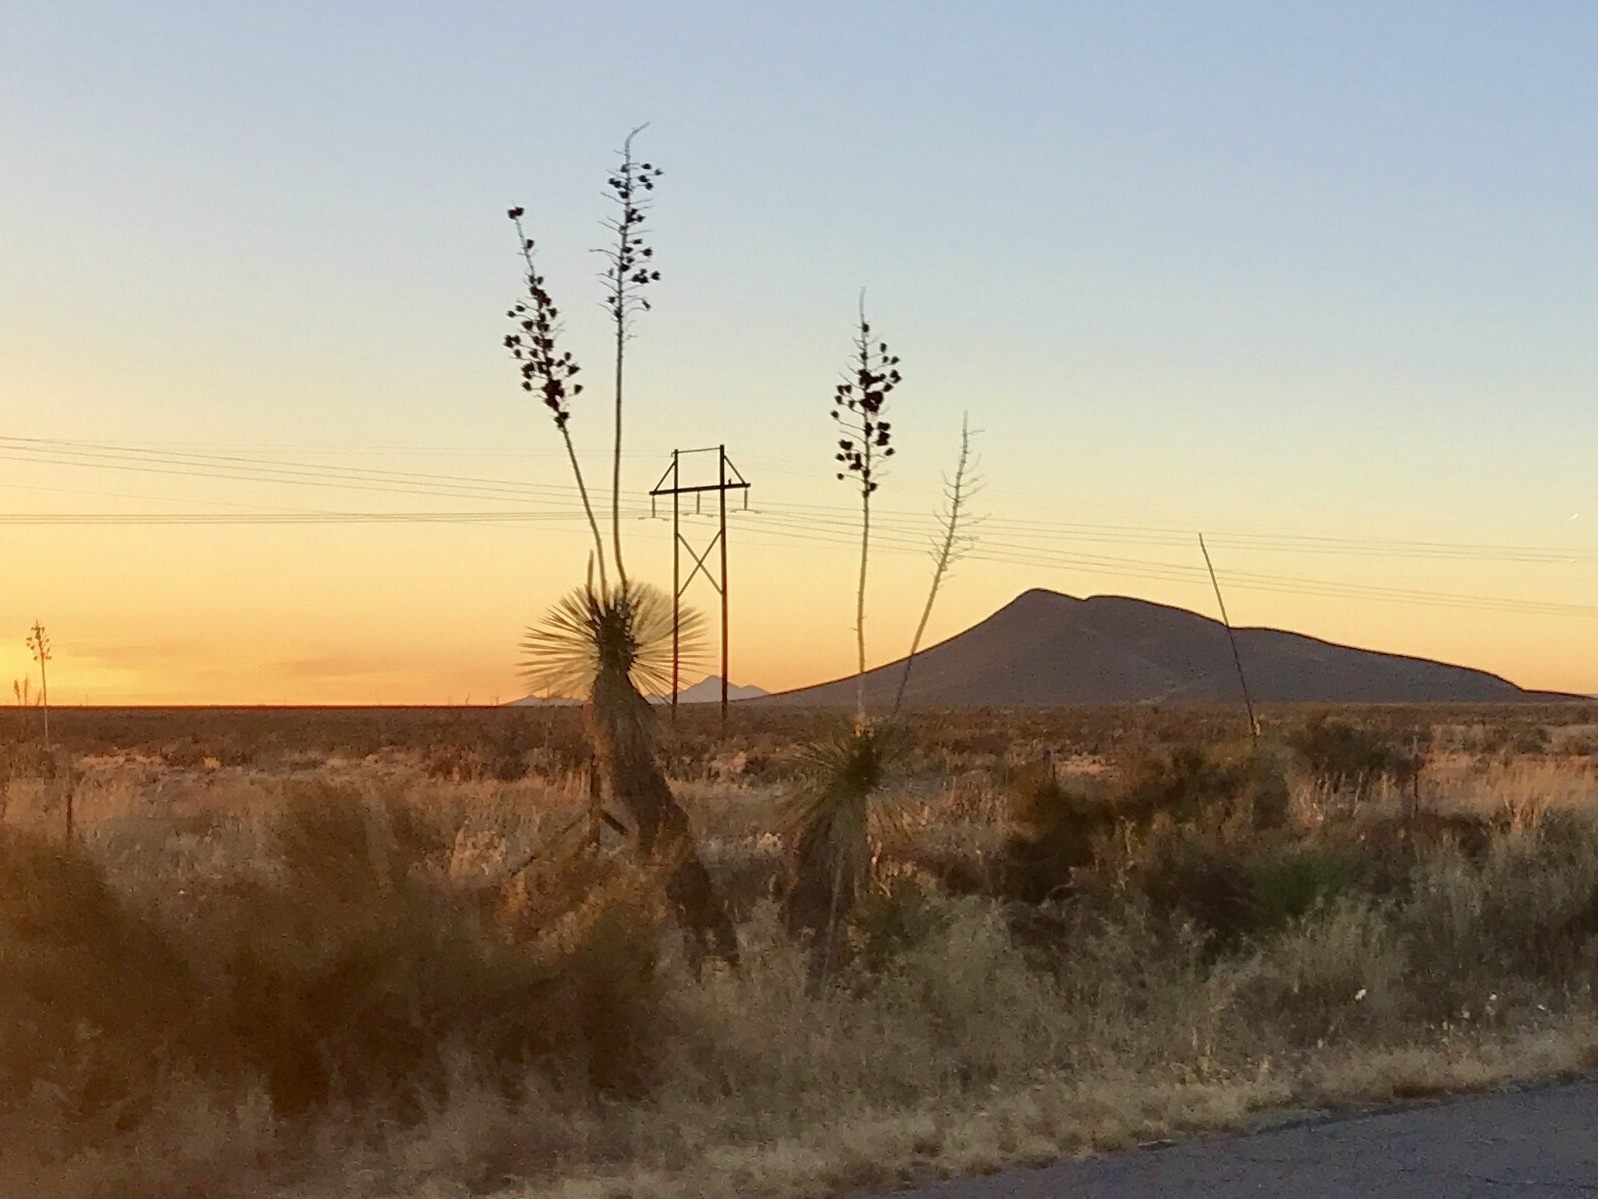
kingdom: Plantae
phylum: Tracheophyta
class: Liliopsida
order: Asparagales
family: Asparagaceae
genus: Yucca
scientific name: Yucca elata
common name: Palmella
